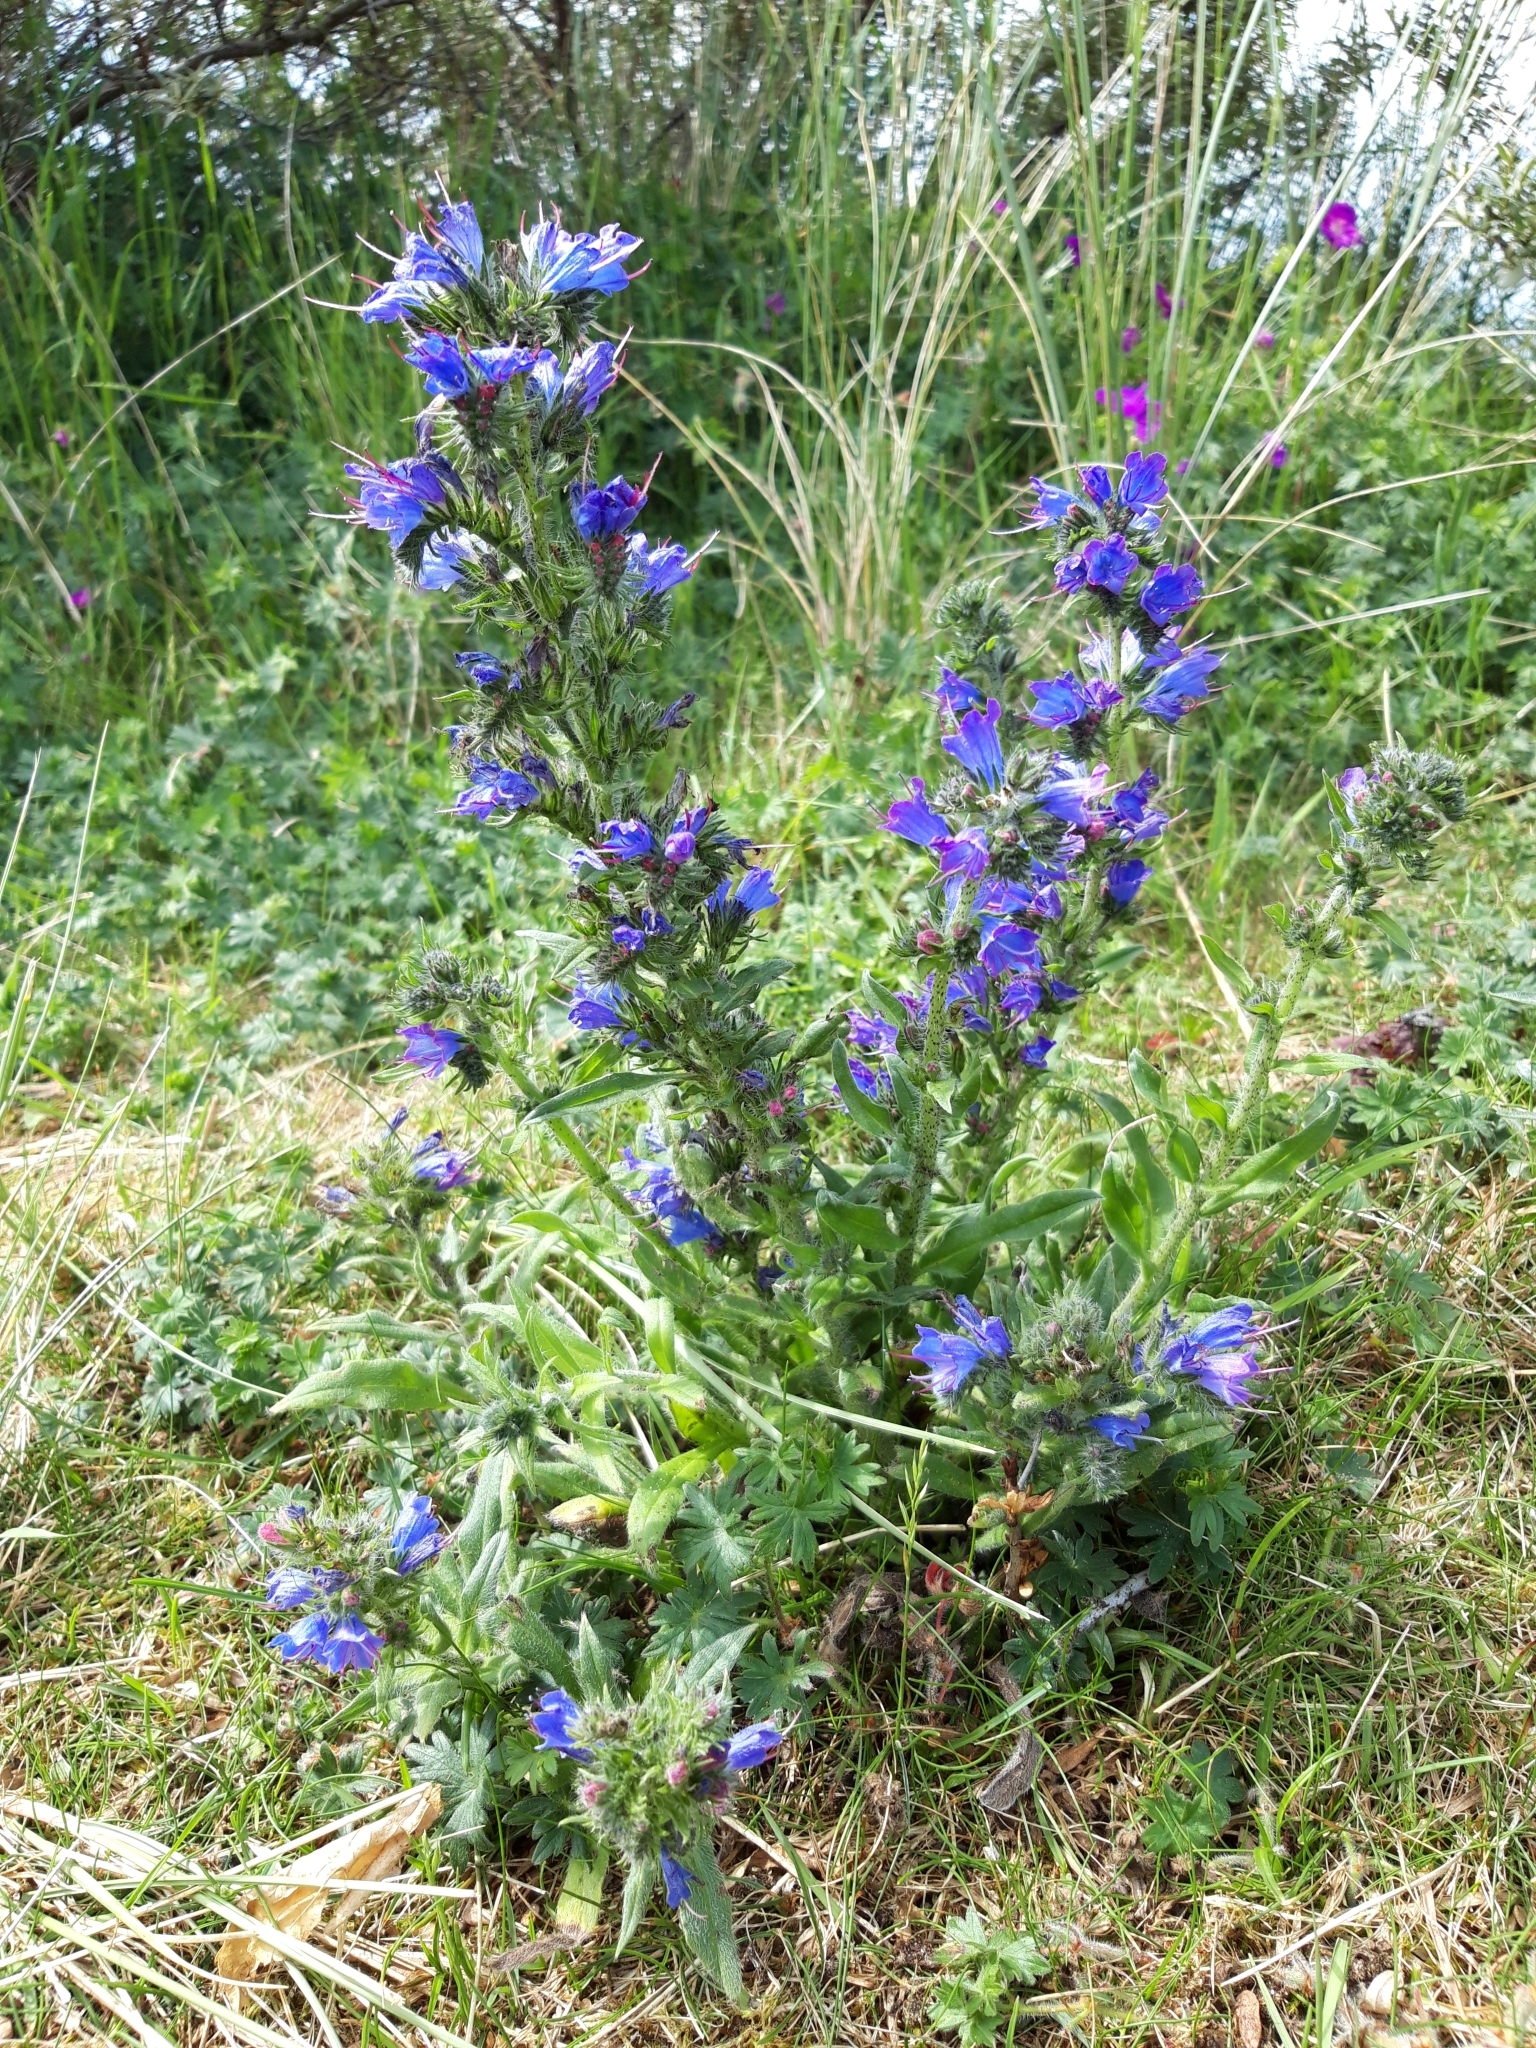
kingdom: Plantae
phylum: Tracheophyta
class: Magnoliopsida
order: Boraginales
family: Boraginaceae
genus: Echium
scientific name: Echium vulgare
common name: Common viper's bugloss
